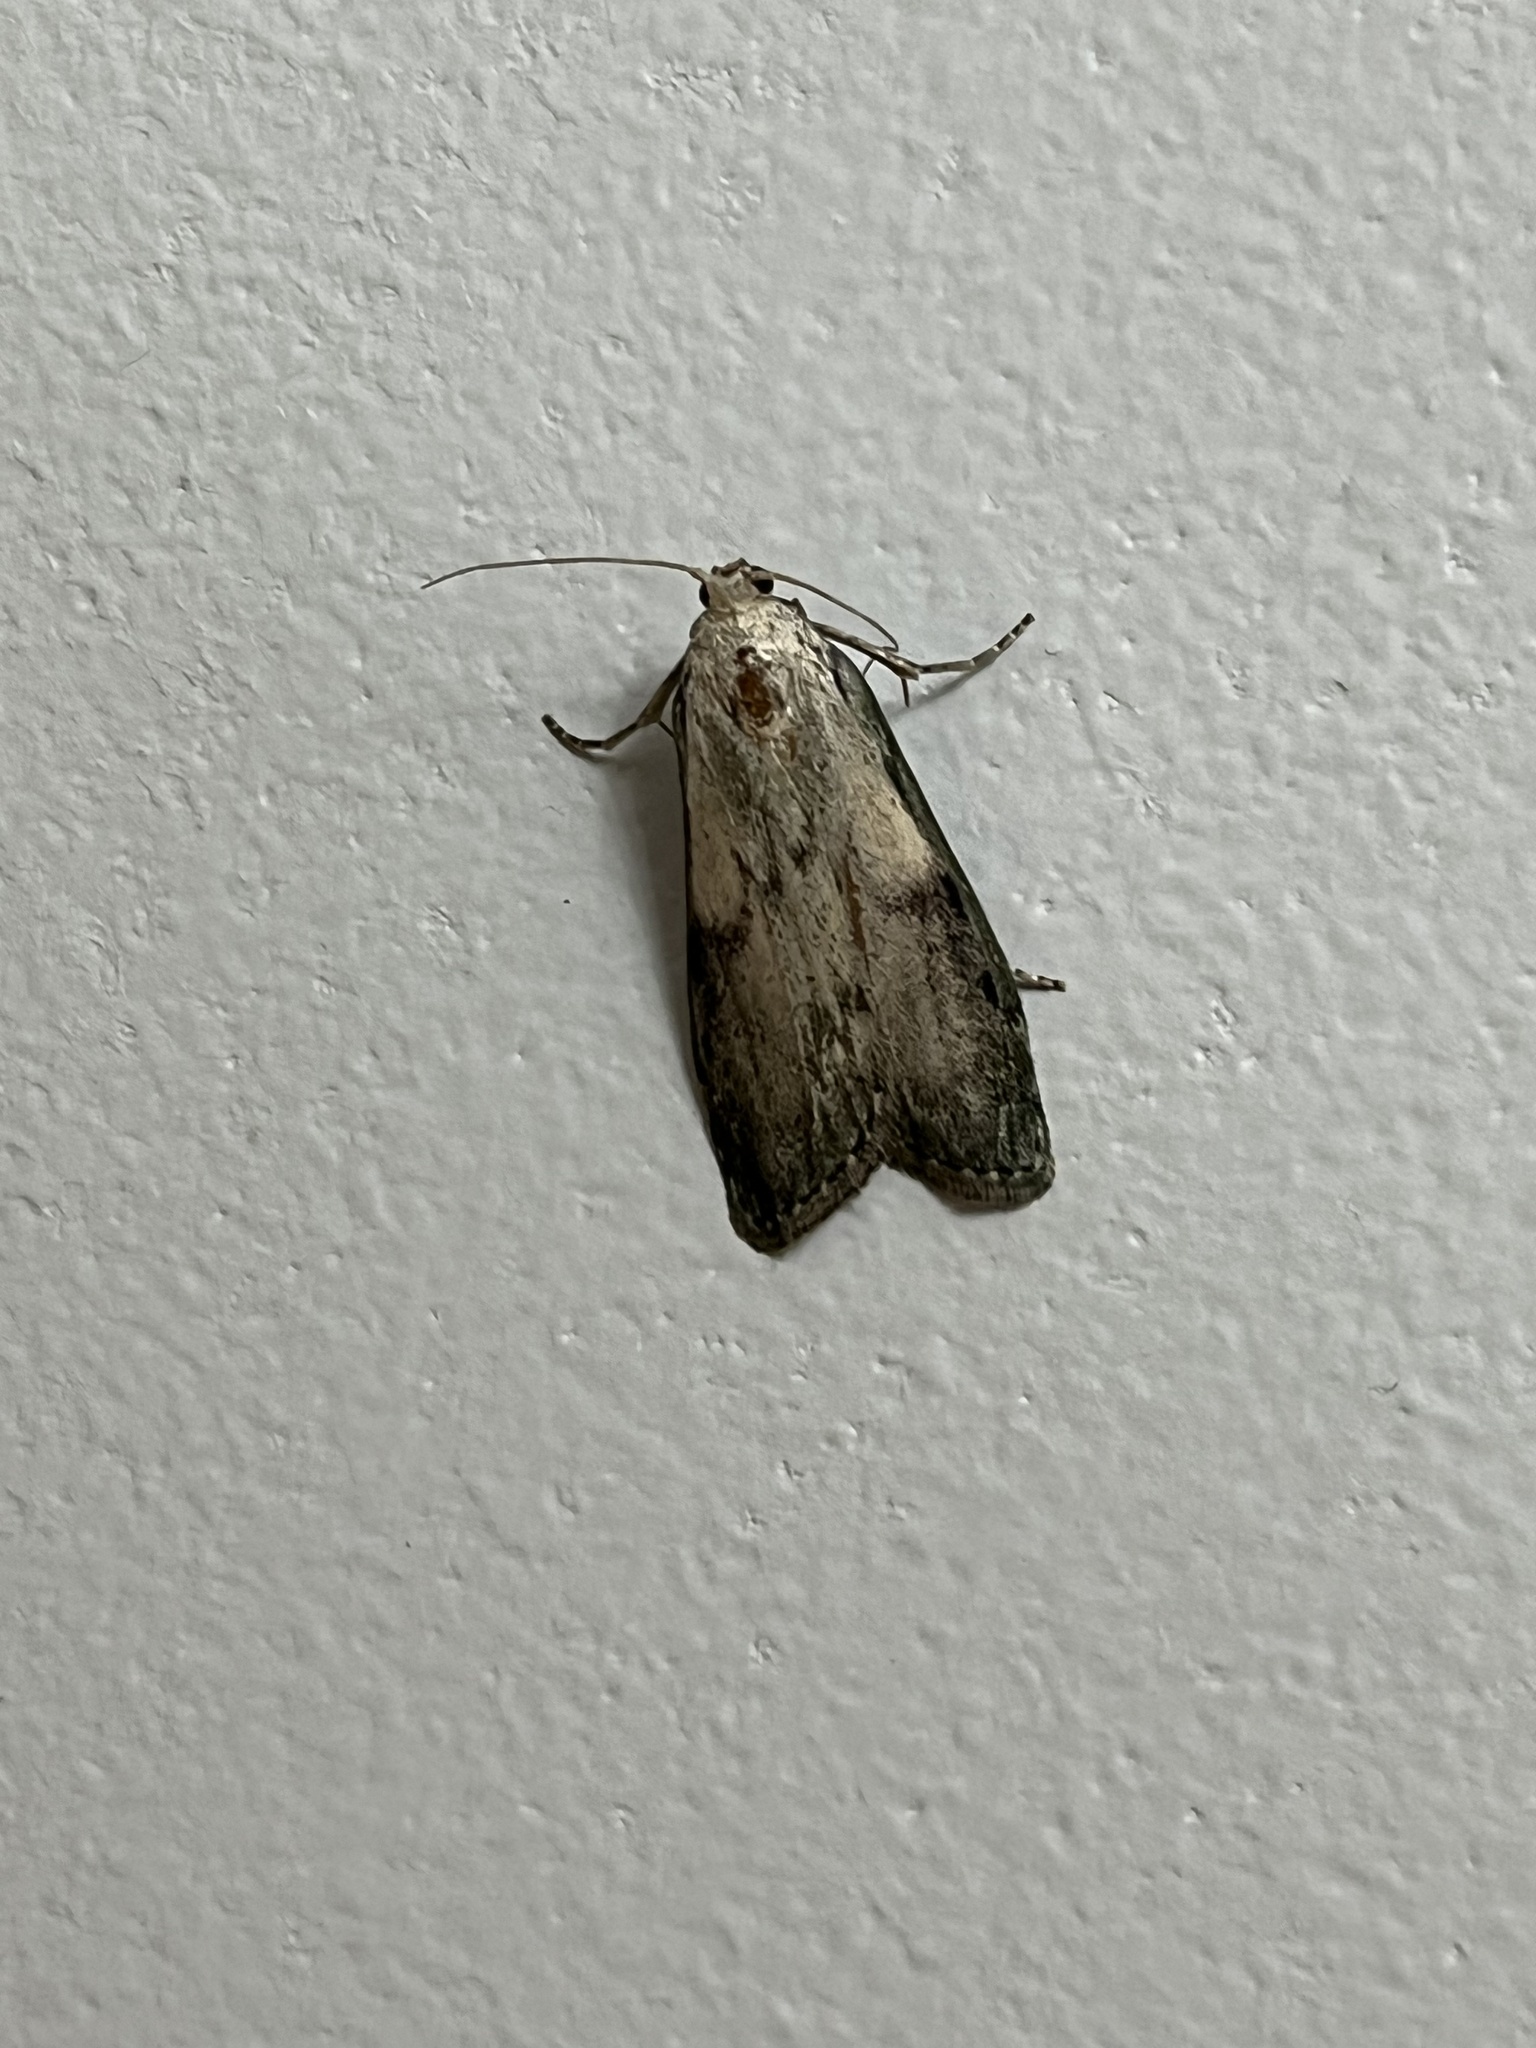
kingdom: Animalia
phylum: Arthropoda
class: Insecta
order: Lepidoptera
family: Pyralidae
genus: Aphomia
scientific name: Aphomia sociella
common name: Bee moth
